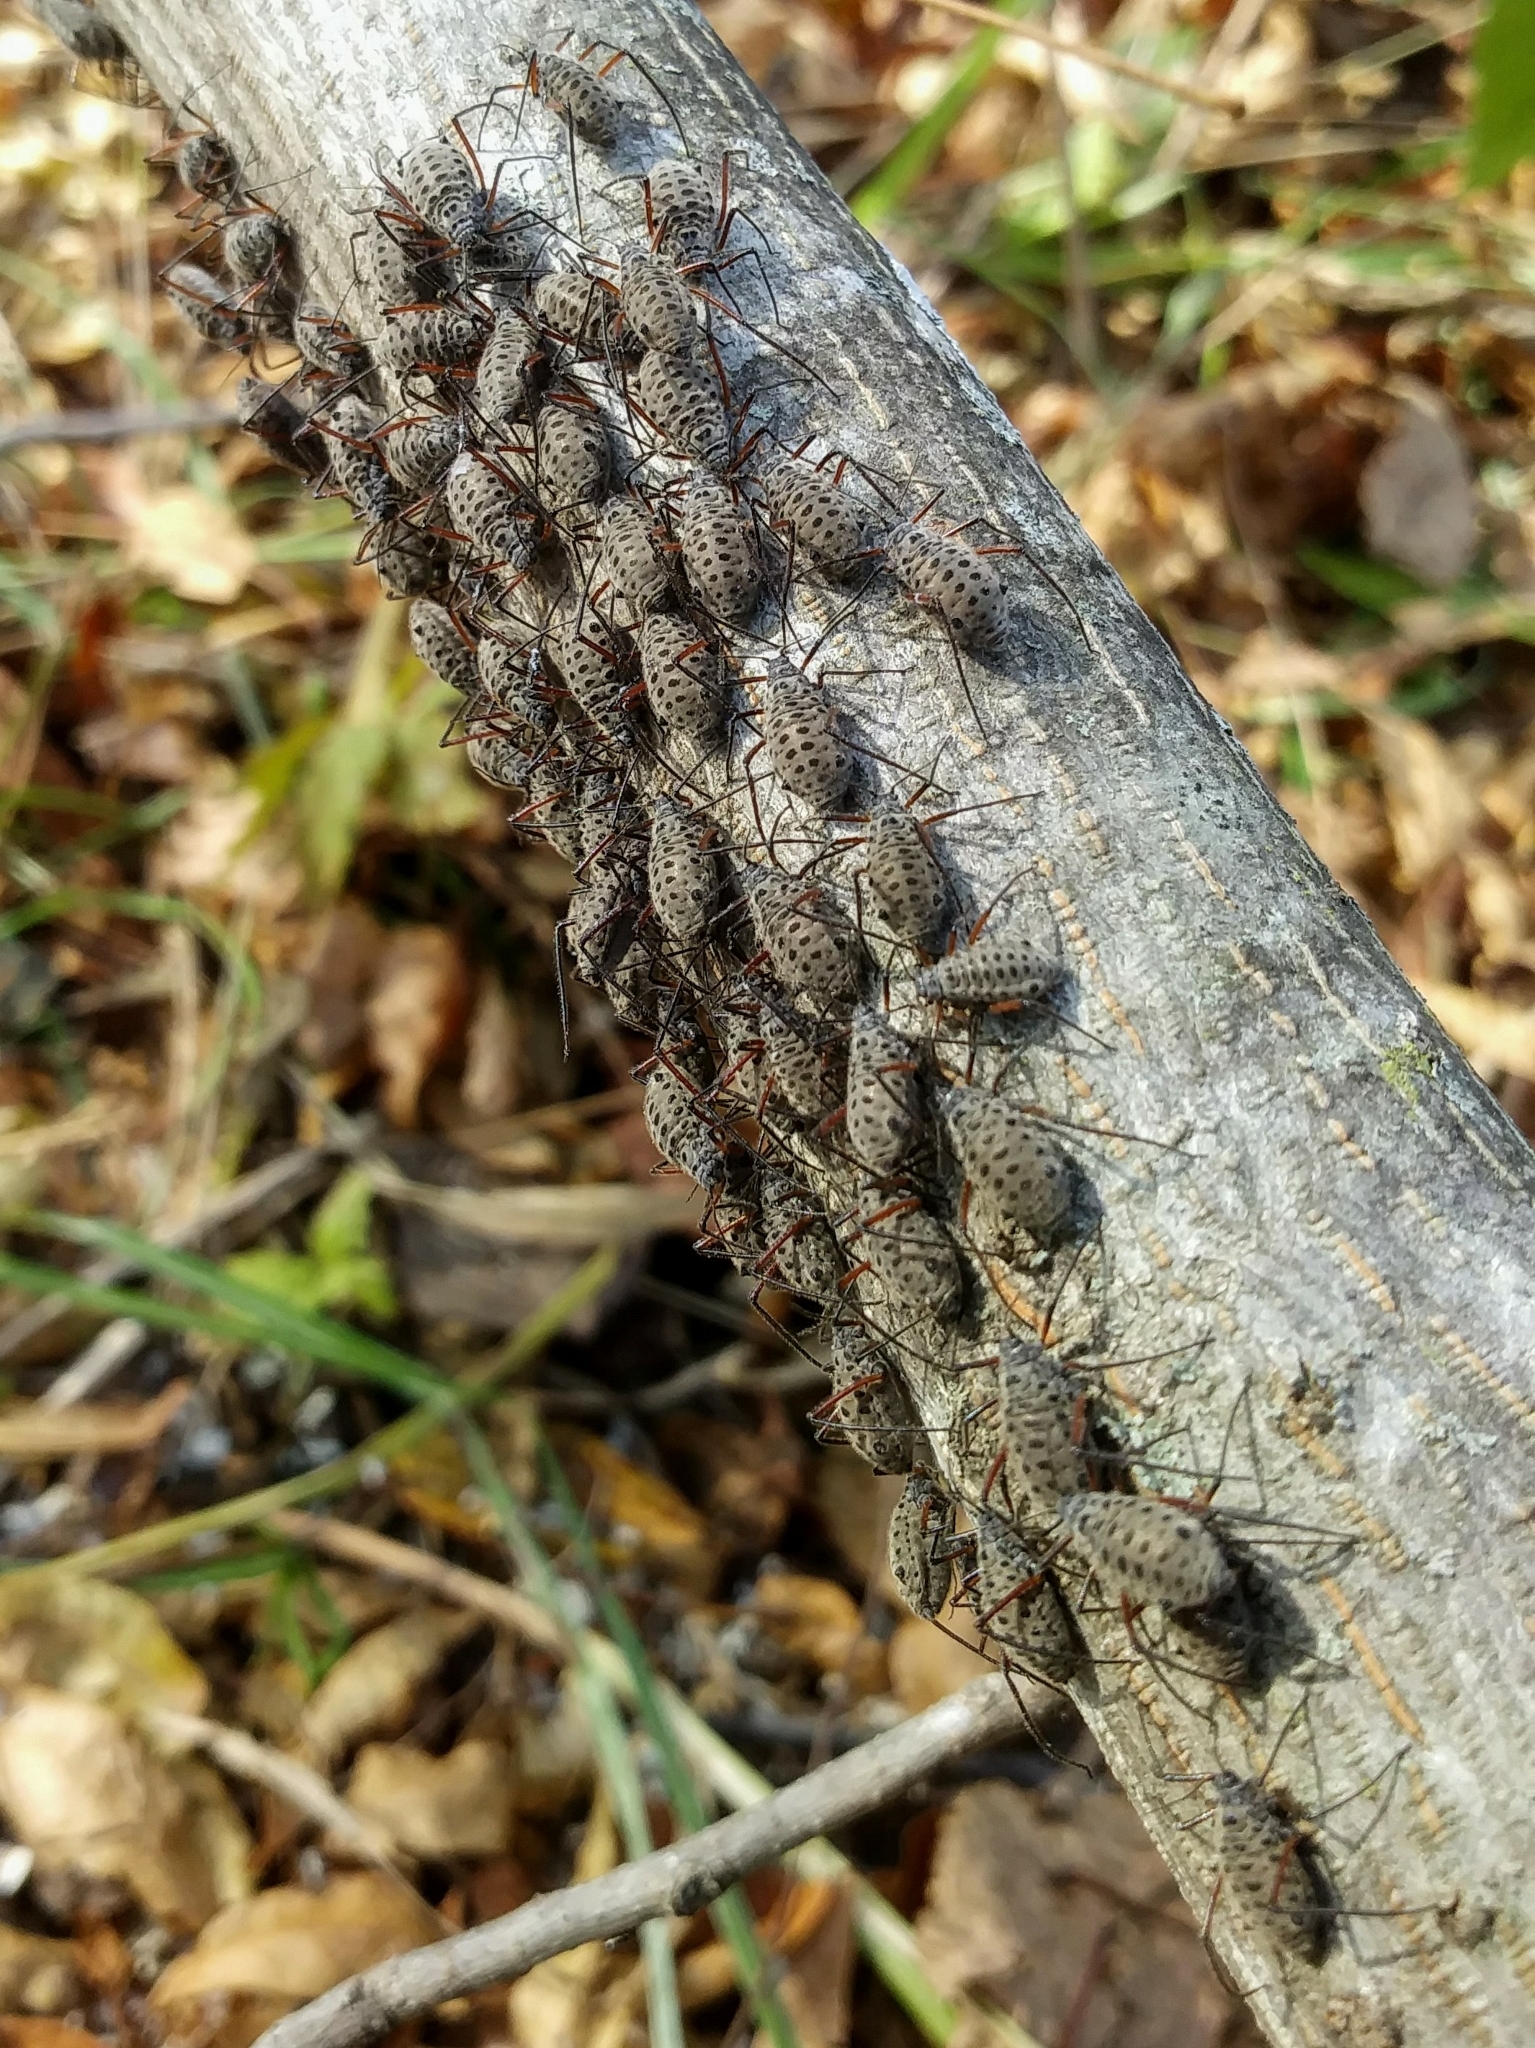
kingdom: Animalia
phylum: Arthropoda
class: Insecta
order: Hemiptera
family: Aphididae
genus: Longistigma
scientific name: Longistigma caryae
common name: Giant bark aphid
